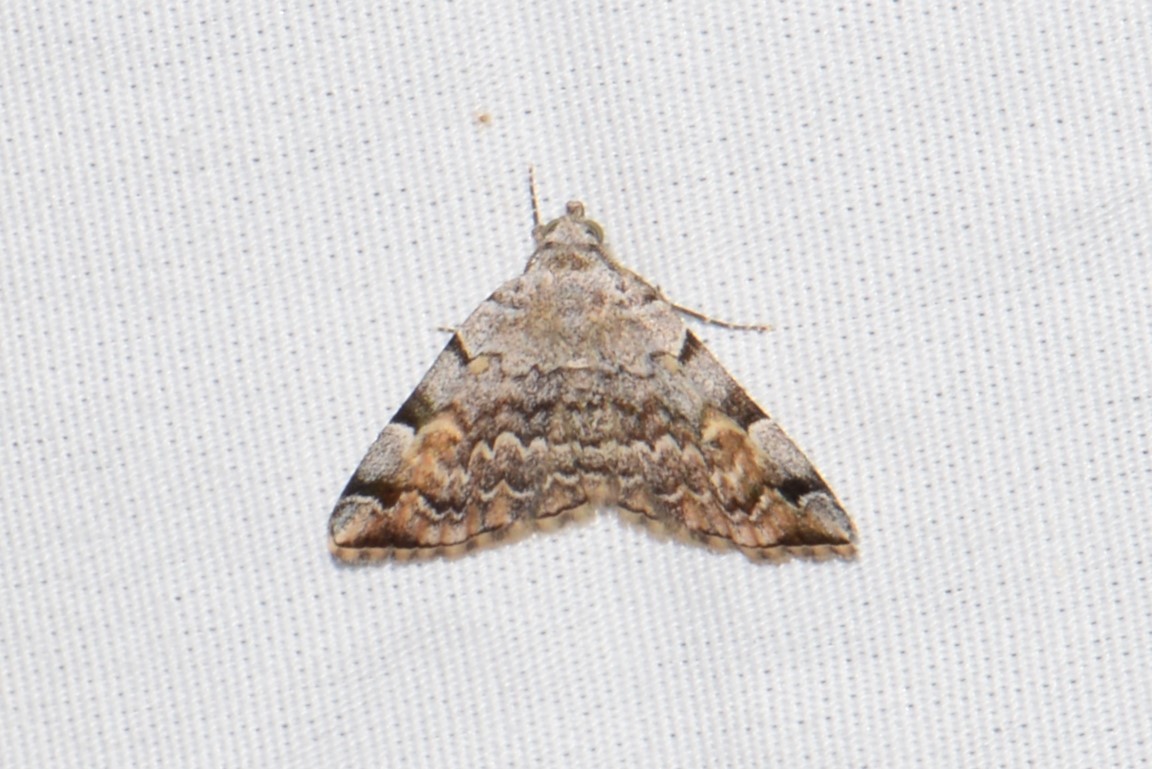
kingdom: Animalia
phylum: Arthropoda
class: Insecta
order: Lepidoptera
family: Erebidae
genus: Idia
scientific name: Idia americalis
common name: American idia moth
